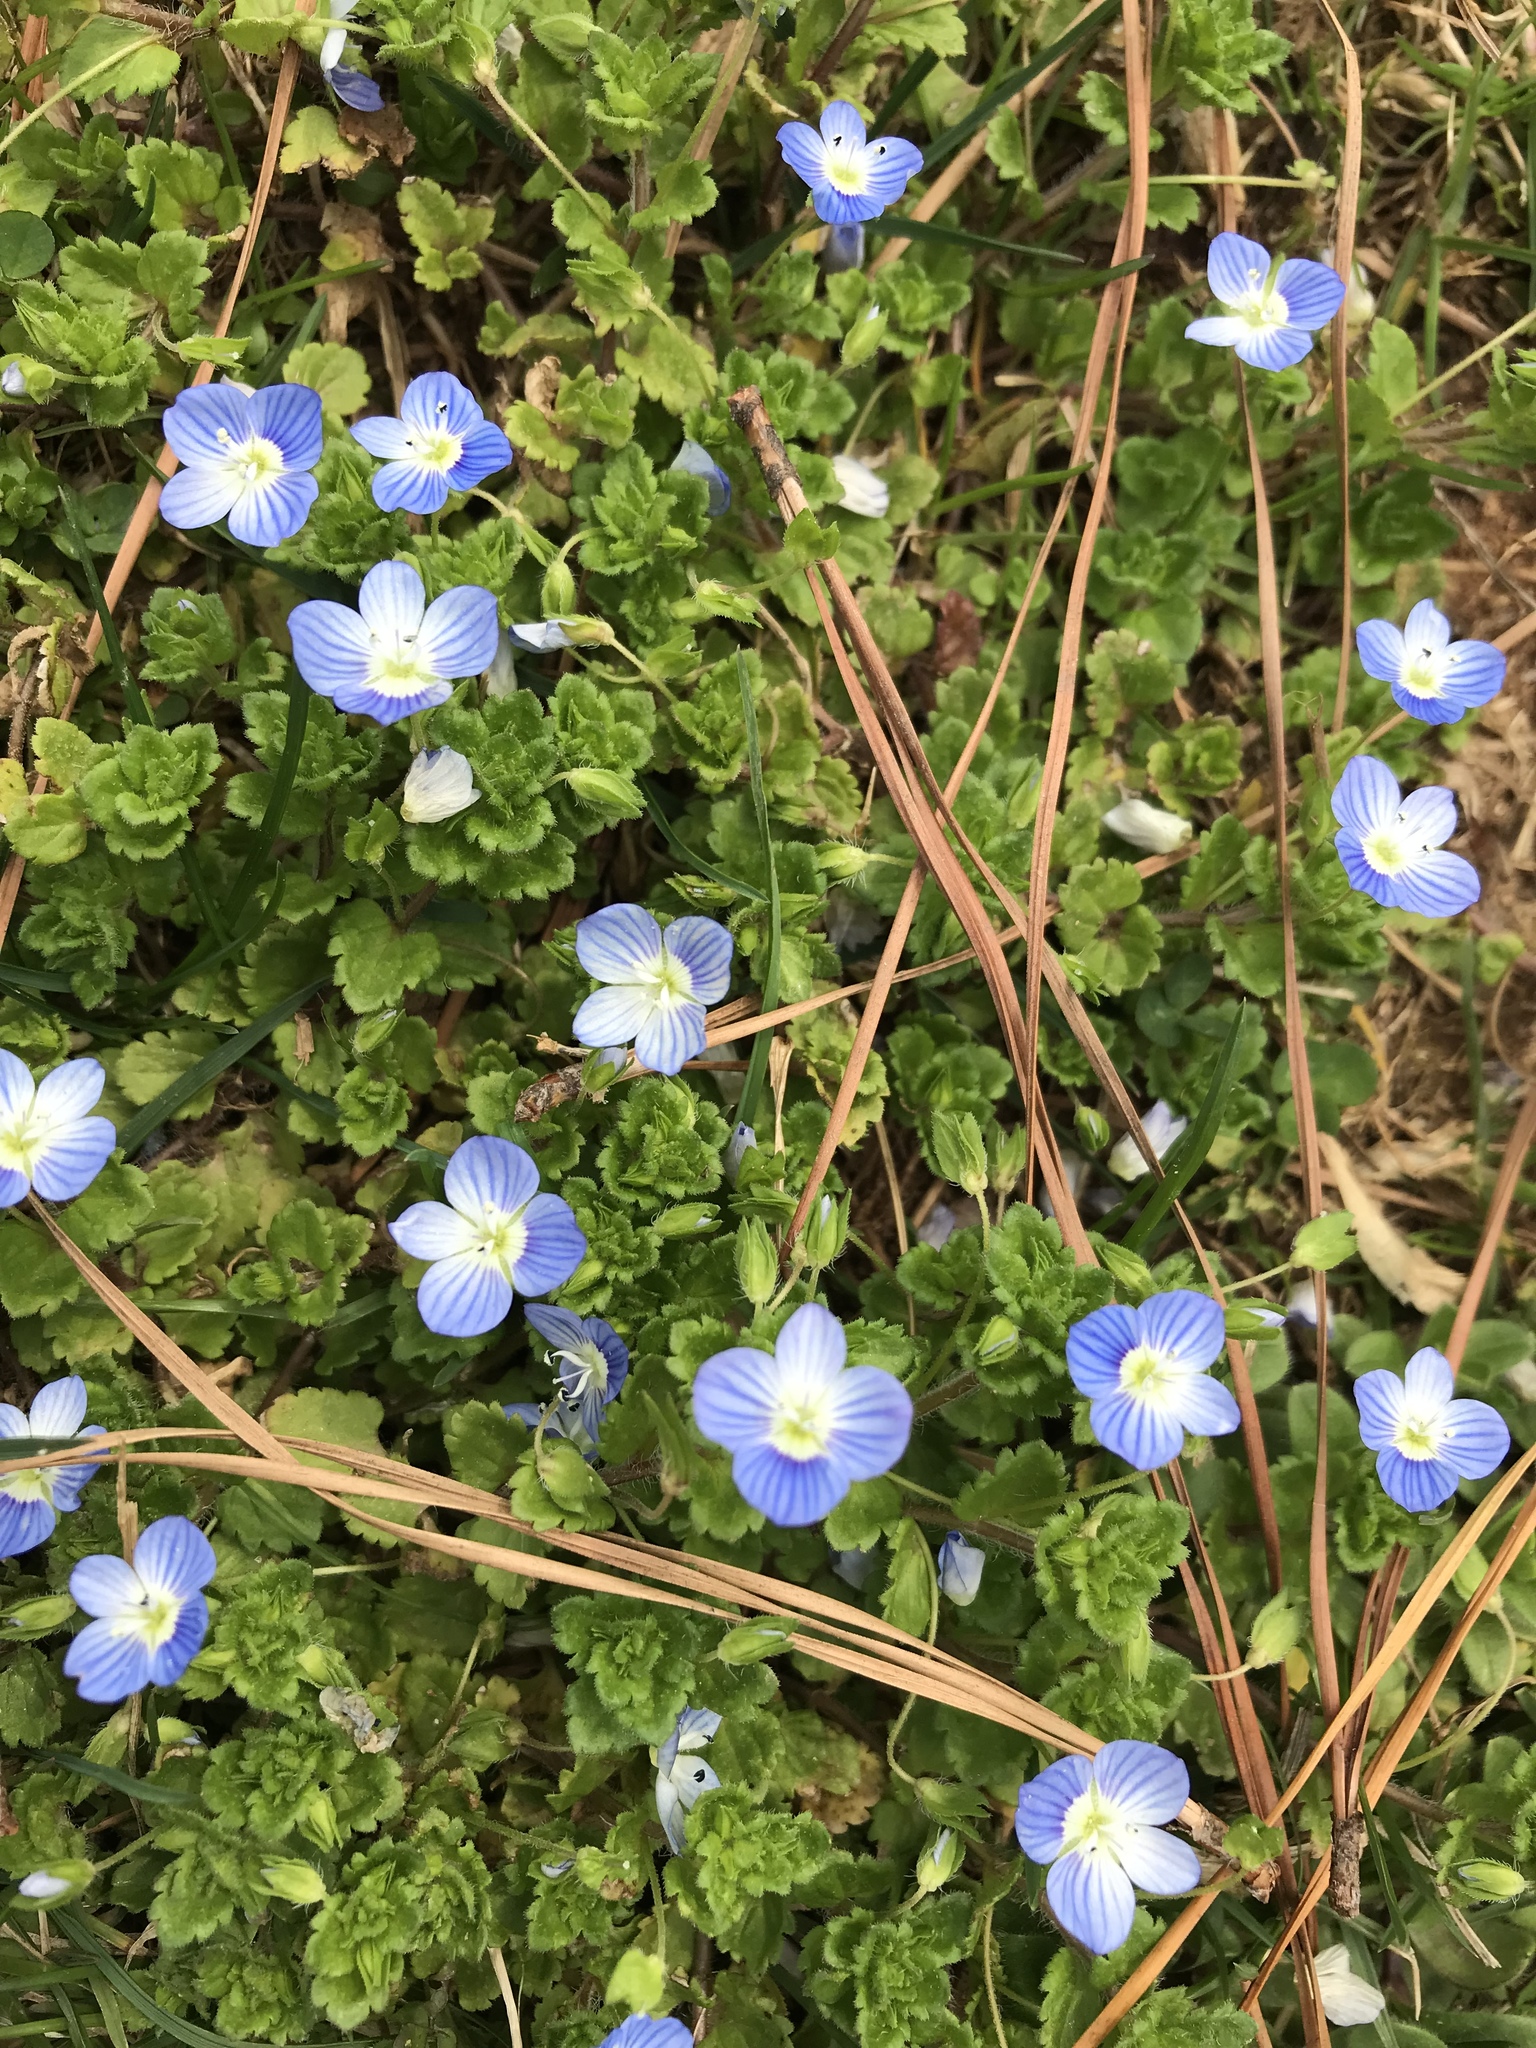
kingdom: Plantae
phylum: Tracheophyta
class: Magnoliopsida
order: Lamiales
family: Plantaginaceae
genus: Veronica
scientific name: Veronica persica
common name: Common field-speedwell
